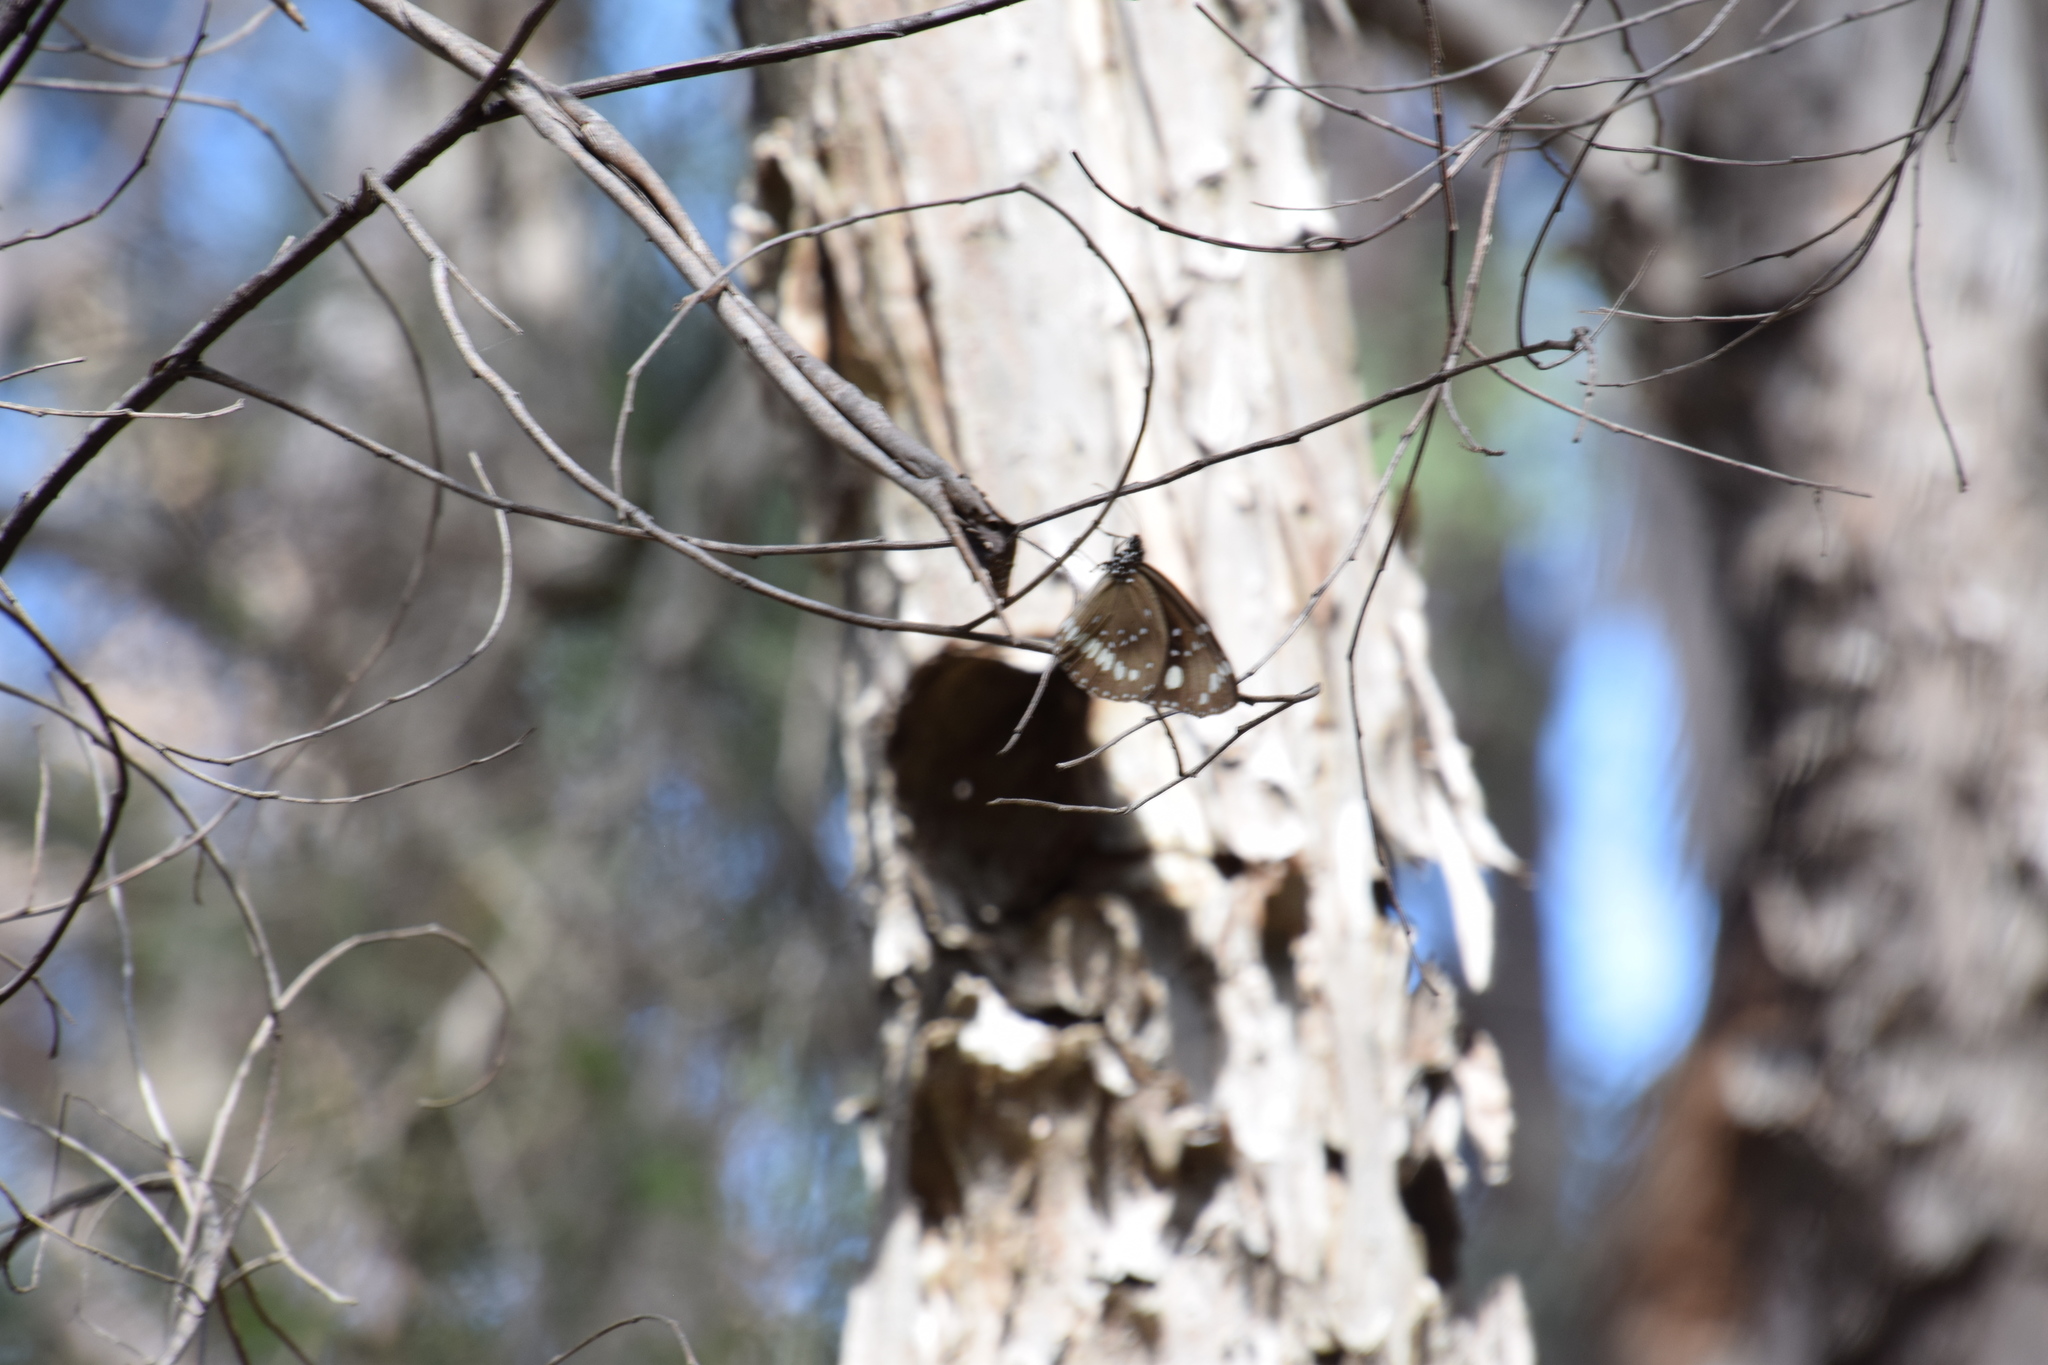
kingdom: Animalia
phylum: Arthropoda
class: Insecta
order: Lepidoptera
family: Nymphalidae
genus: Euploea
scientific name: Euploea core
